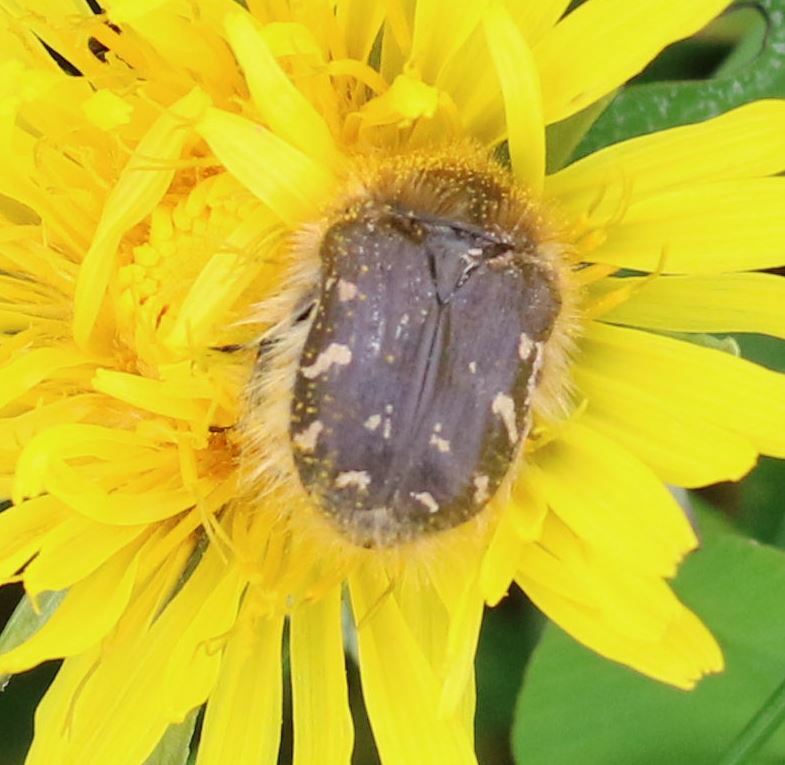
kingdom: Animalia
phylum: Arthropoda
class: Insecta
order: Coleoptera
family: Scarabaeidae
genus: Tropinota
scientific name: Tropinota hirta
